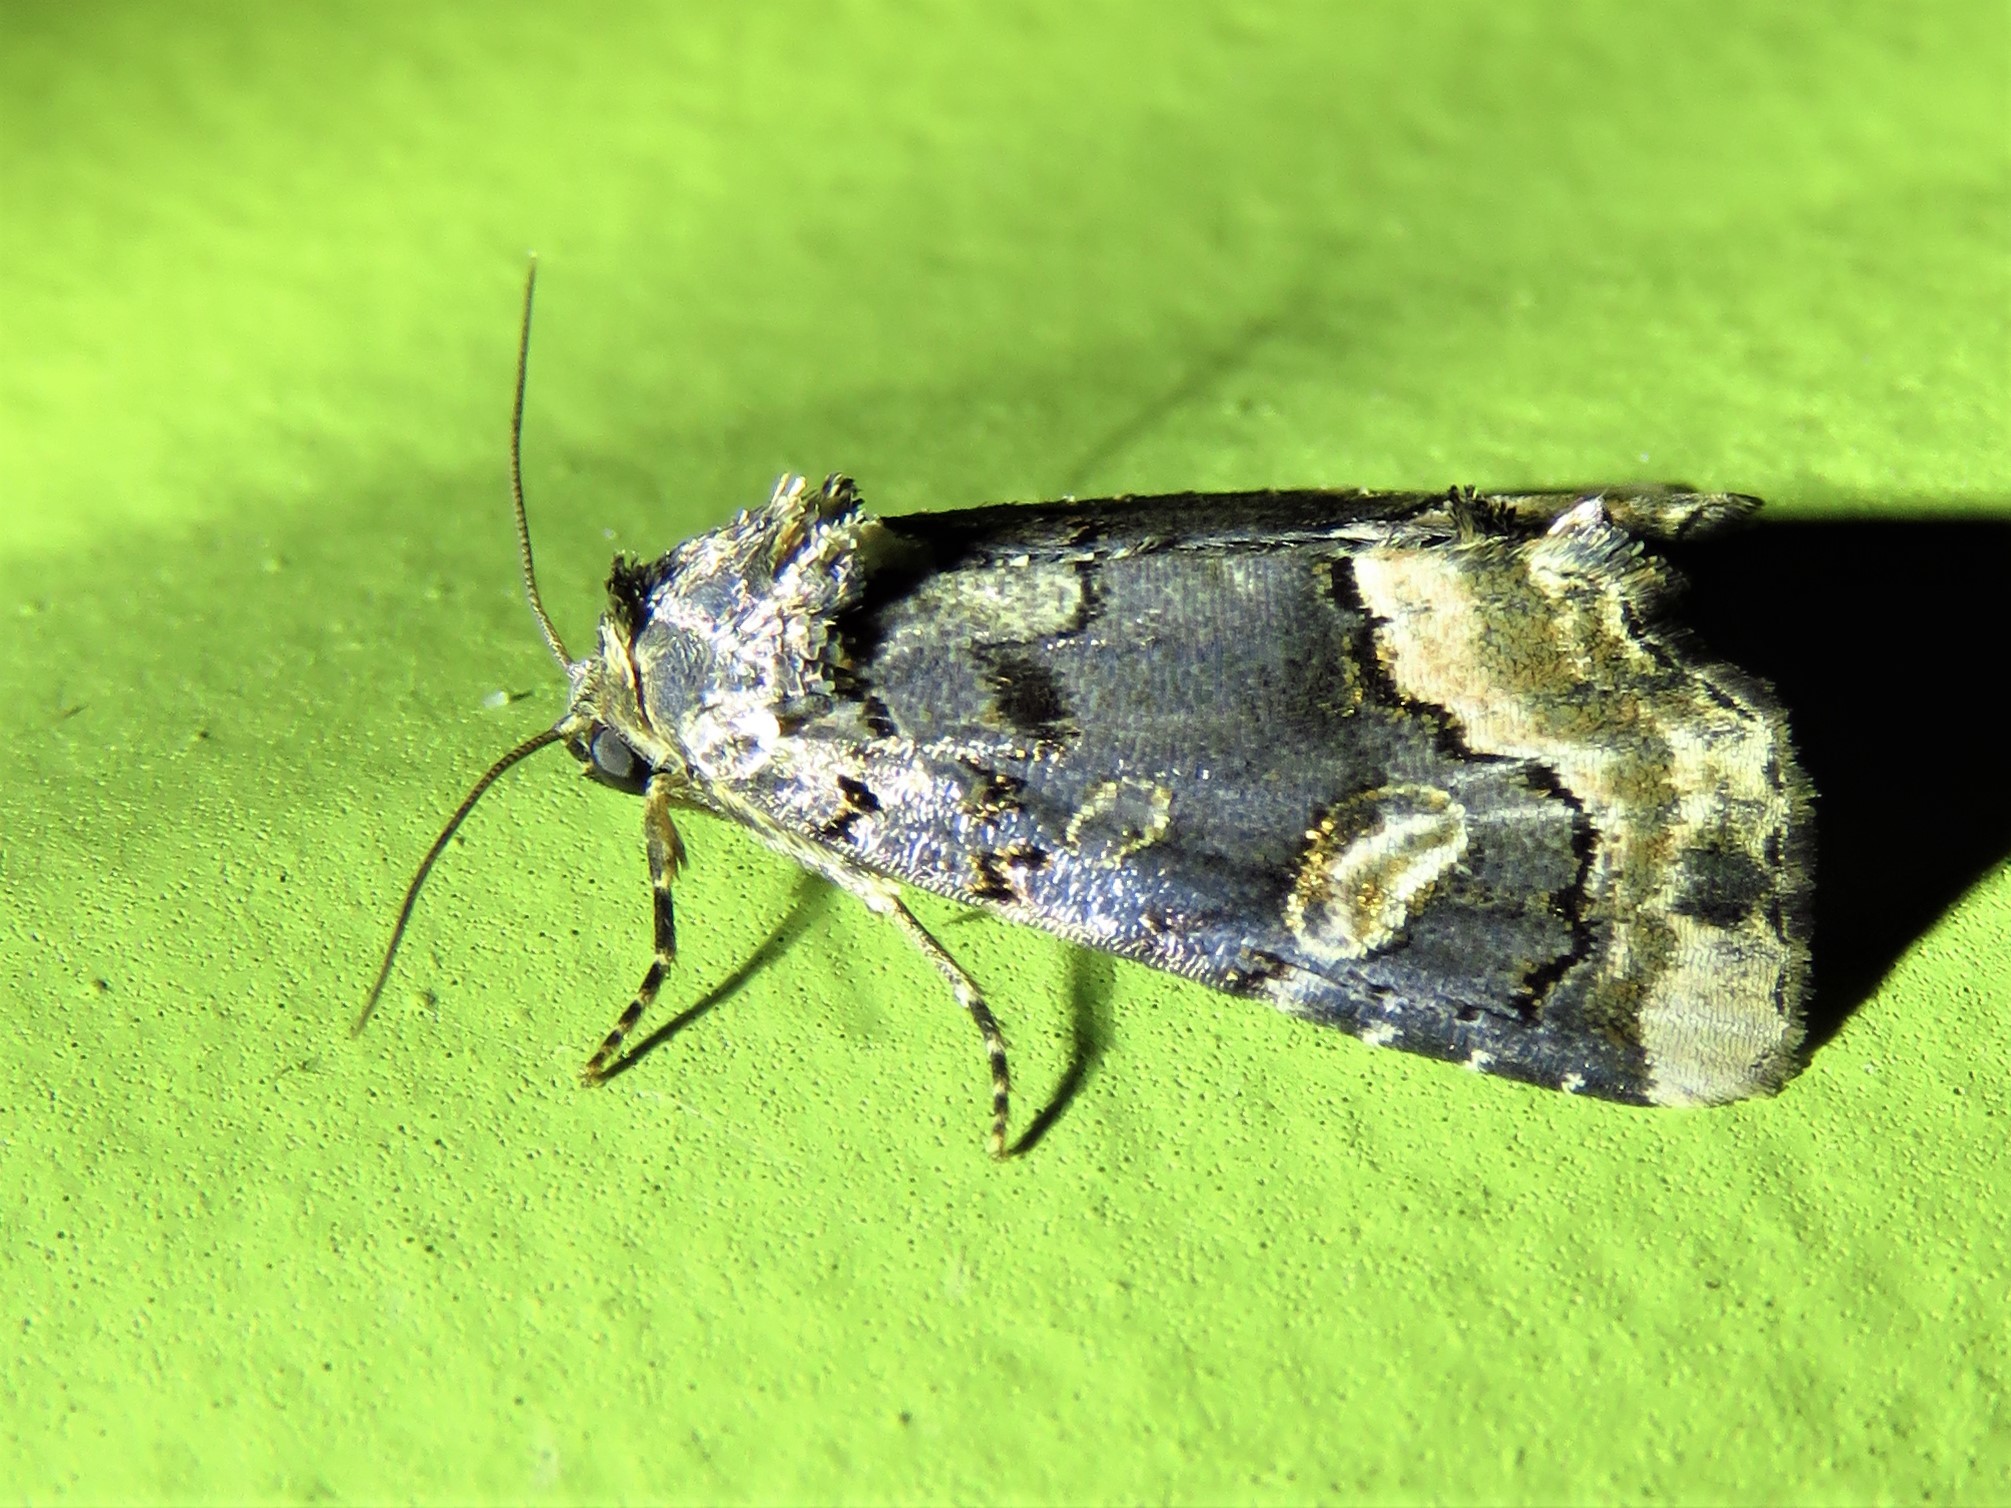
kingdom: Animalia
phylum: Arthropoda
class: Insecta
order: Lepidoptera
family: Noctuidae
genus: Homophoberia
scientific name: Homophoberia apicosa
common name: Black wedge-spot
